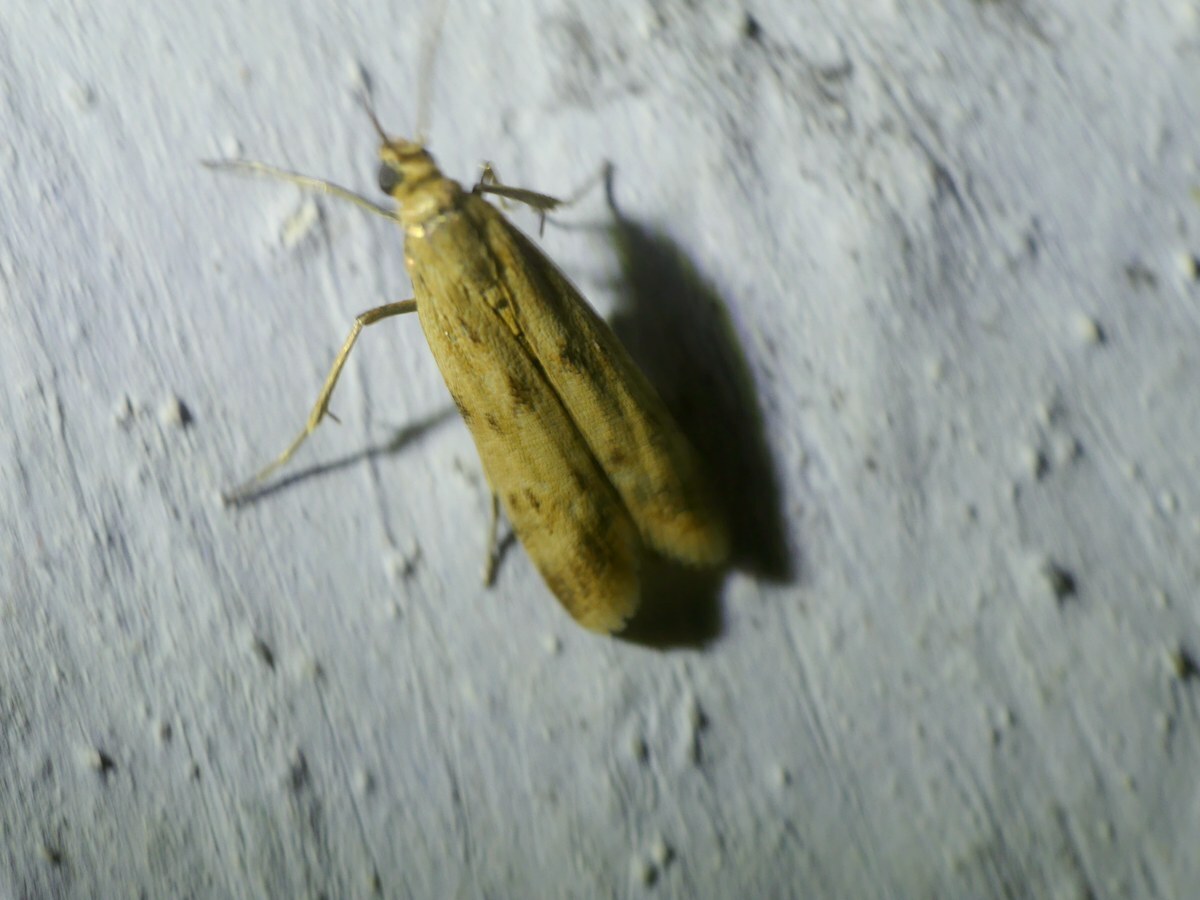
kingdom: Animalia
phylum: Arthropoda
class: Insecta
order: Lepidoptera
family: Pyralidae
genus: Homoeosoma
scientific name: Homoeosoma sinuella
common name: Twin-barred knot-horn
